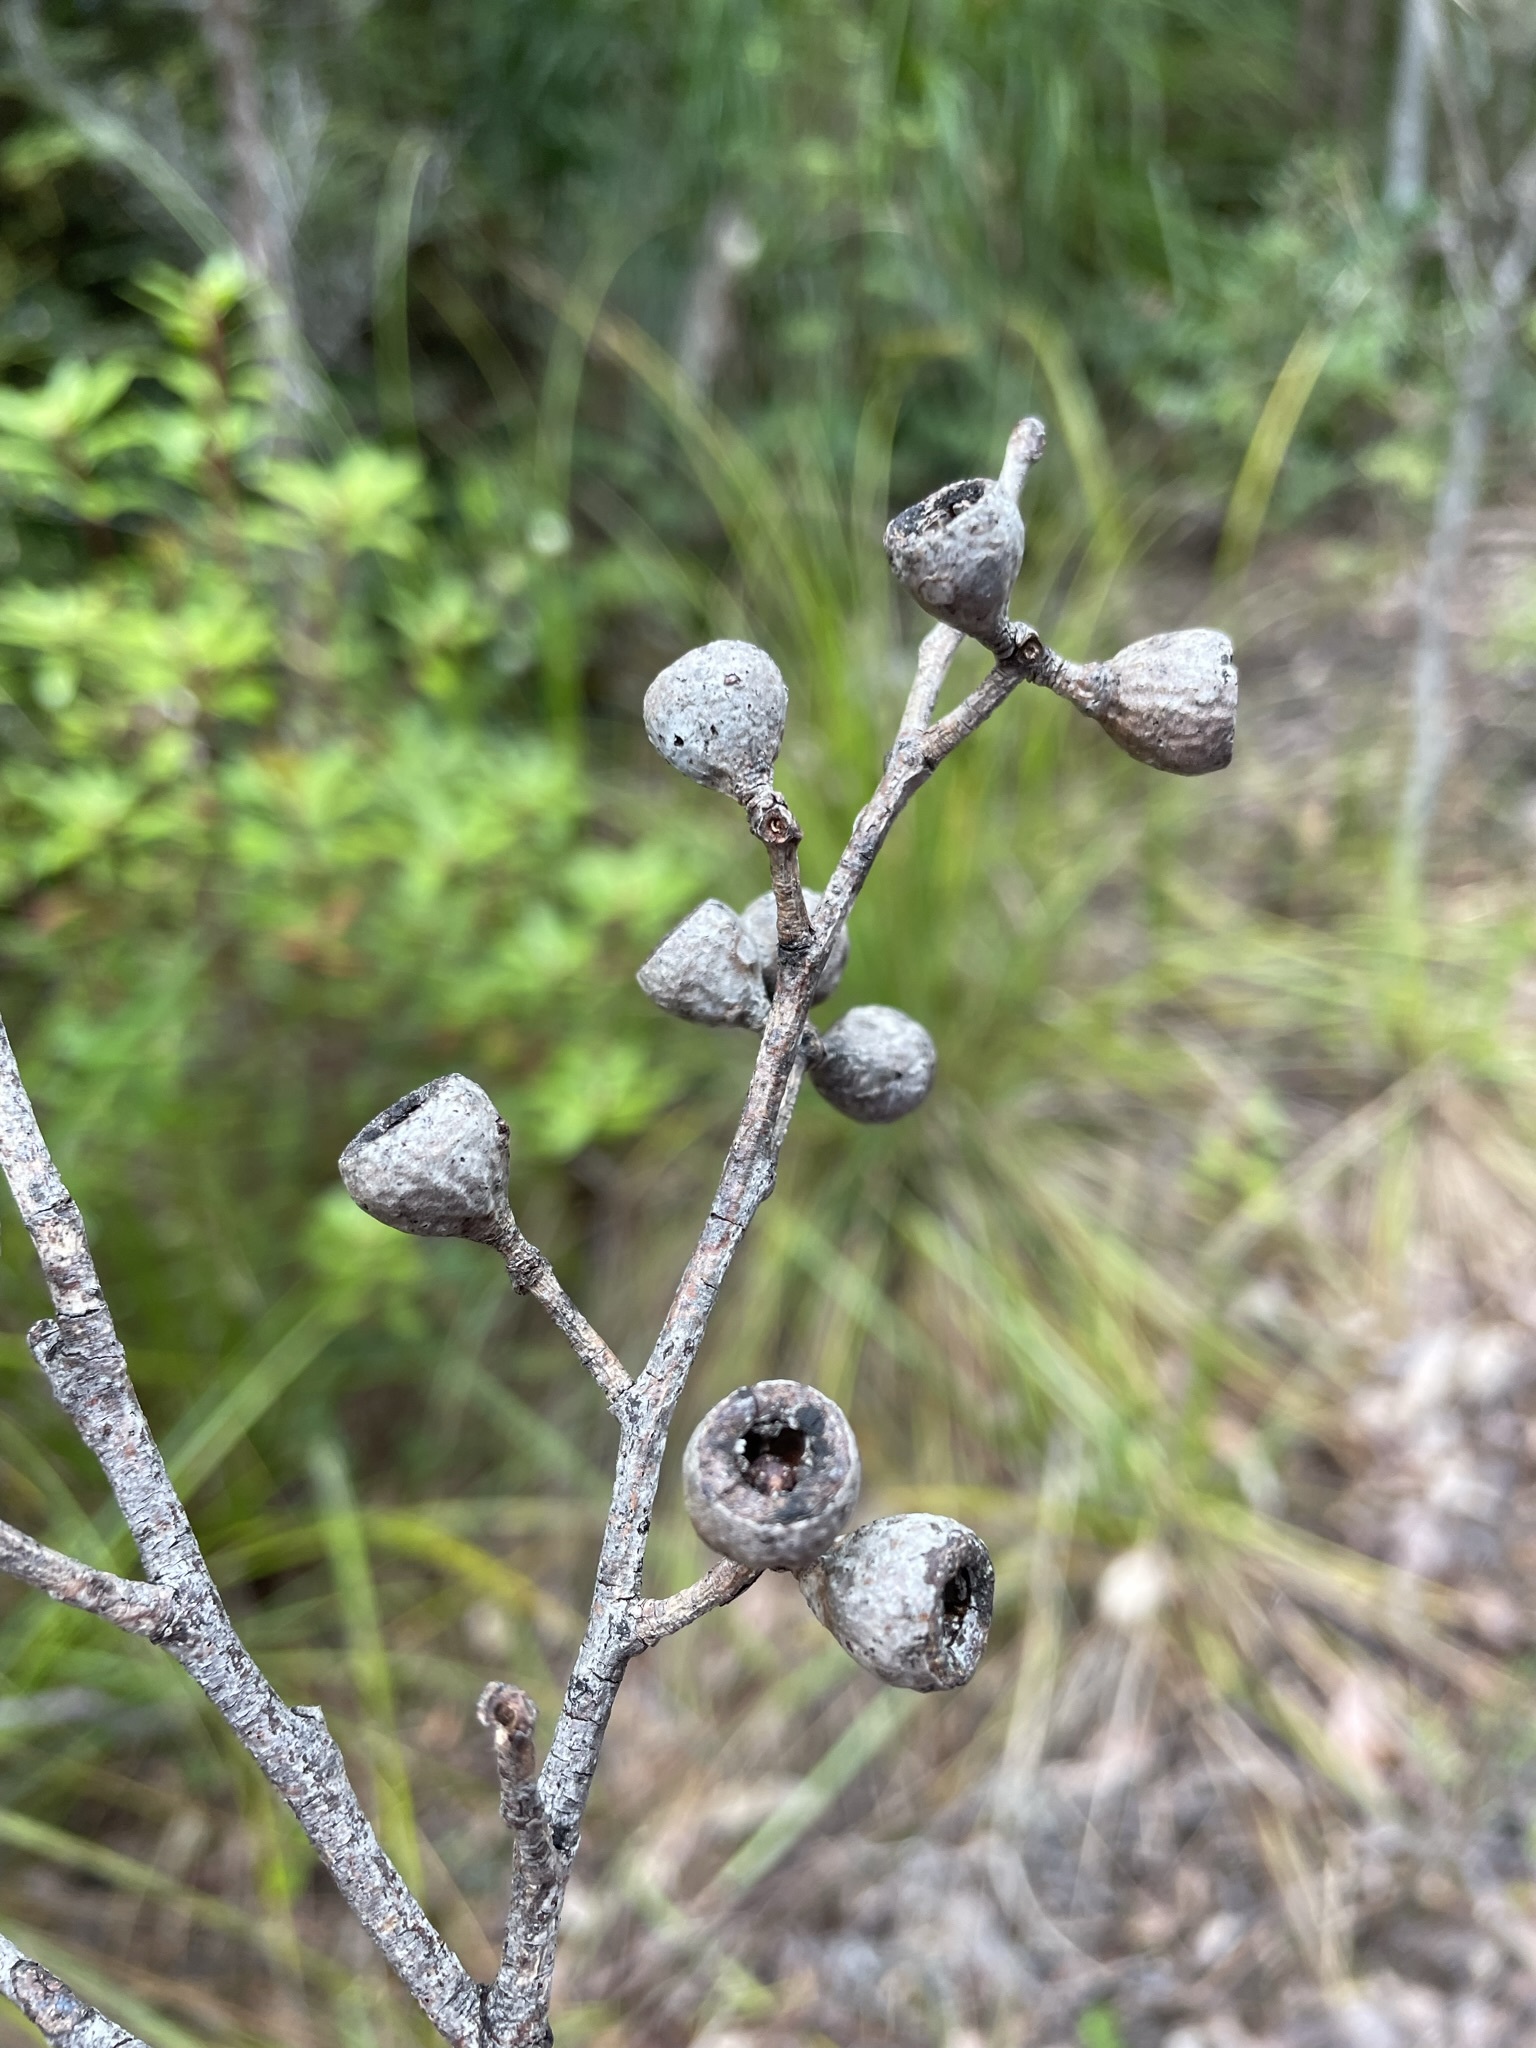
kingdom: Plantae
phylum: Tracheophyta
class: Magnoliopsida
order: Myrtales
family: Myrtaceae
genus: Eucalyptus
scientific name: Eucalyptus obliqua
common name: Messmate stringybark
